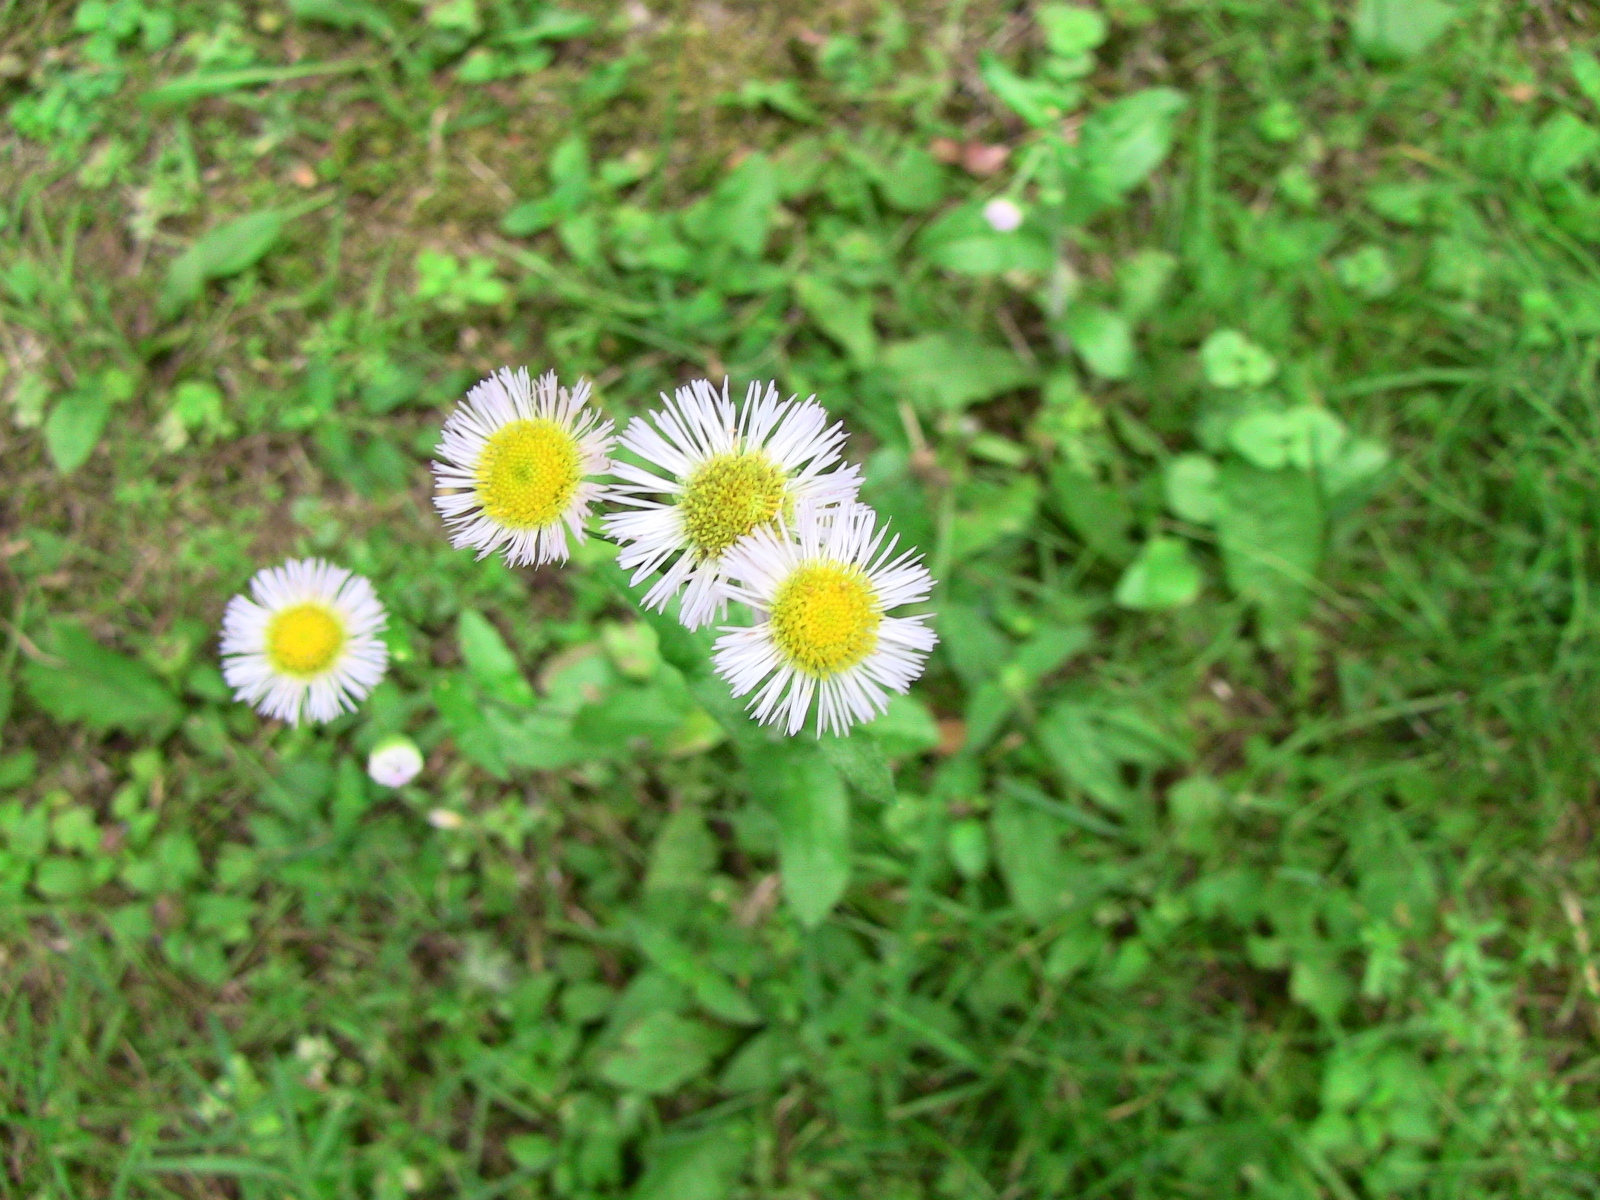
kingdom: Plantae
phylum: Tracheophyta
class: Magnoliopsida
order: Asterales
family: Asteraceae
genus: Erigeron
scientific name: Erigeron
